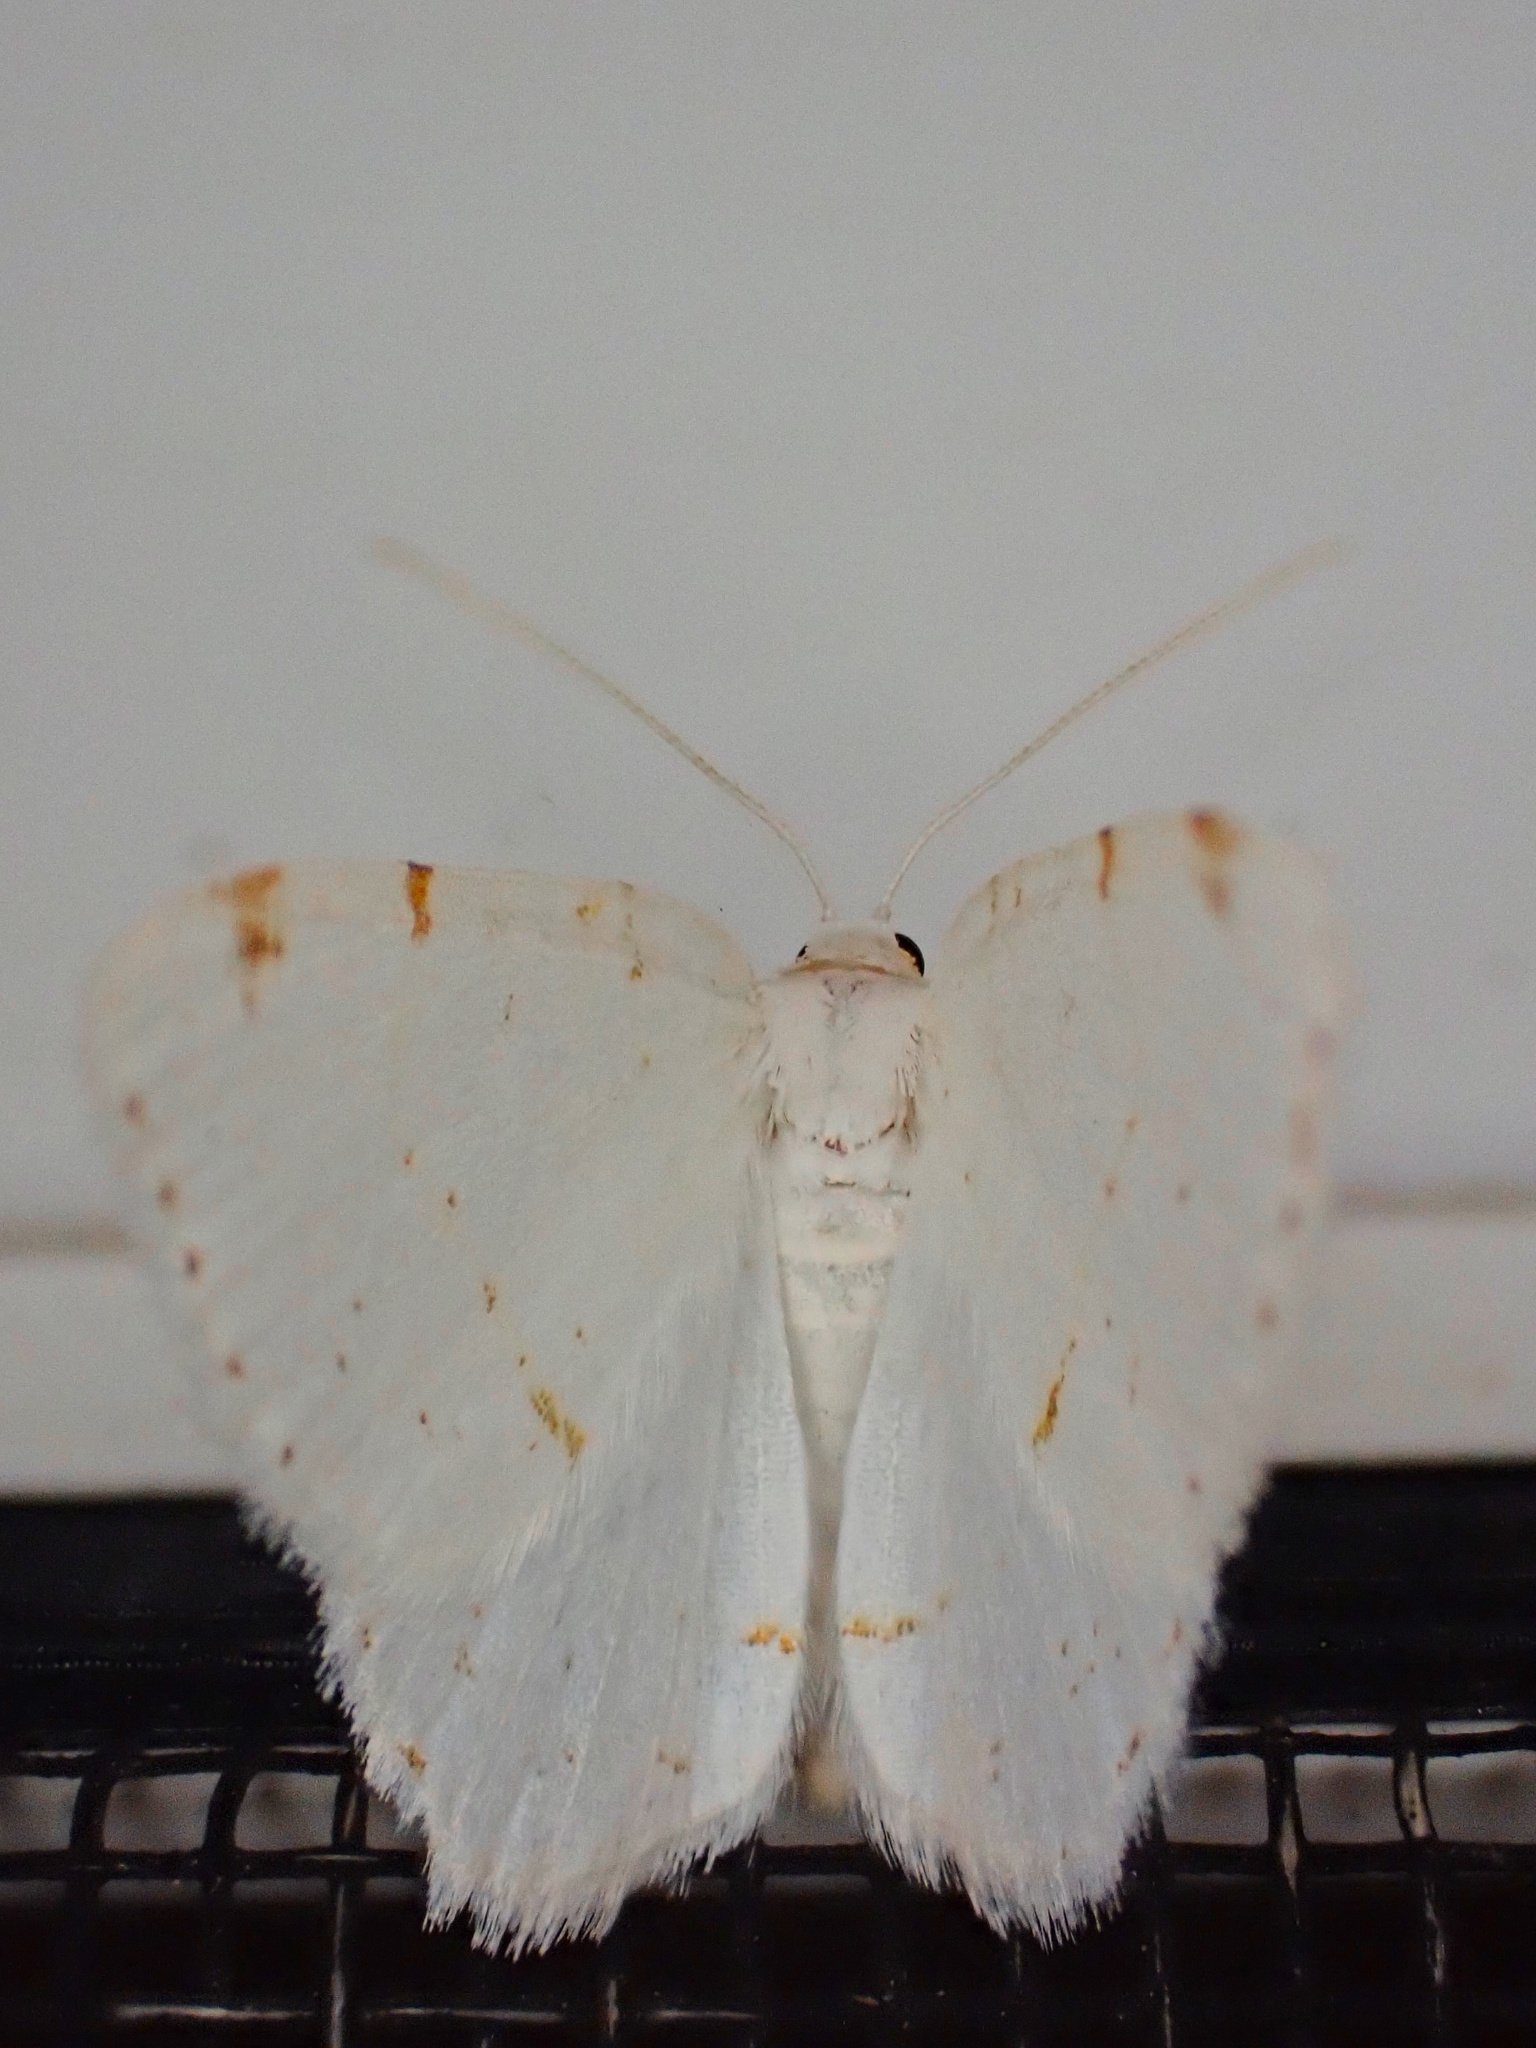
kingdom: Animalia
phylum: Arthropoda
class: Insecta
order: Lepidoptera
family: Geometridae
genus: Macaria
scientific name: Macaria pustularia
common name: Lesser maple spanworm moth
